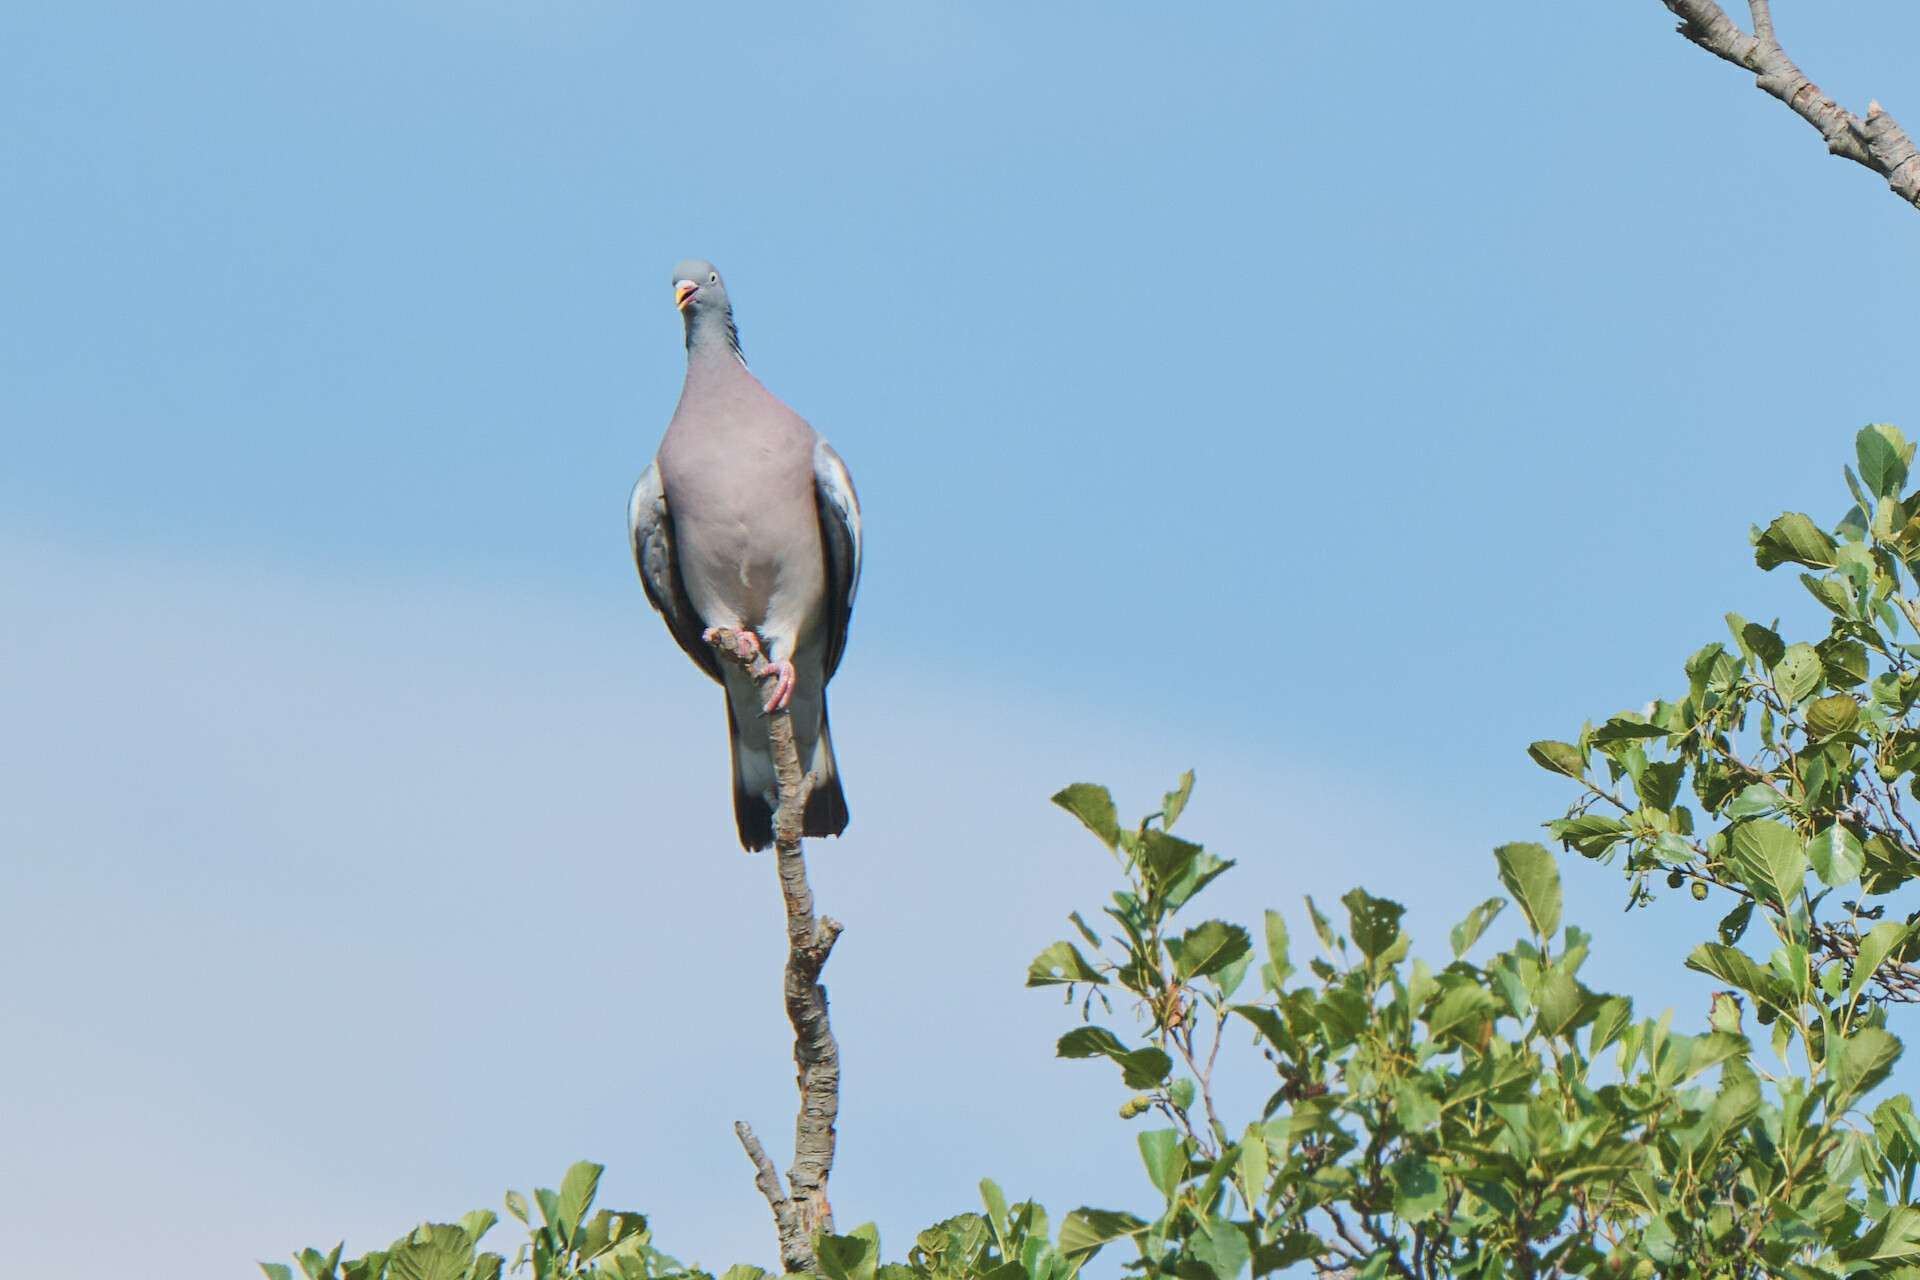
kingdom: Animalia
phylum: Chordata
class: Aves
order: Columbiformes
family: Columbidae
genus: Columba
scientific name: Columba palumbus
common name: Common wood pigeon
